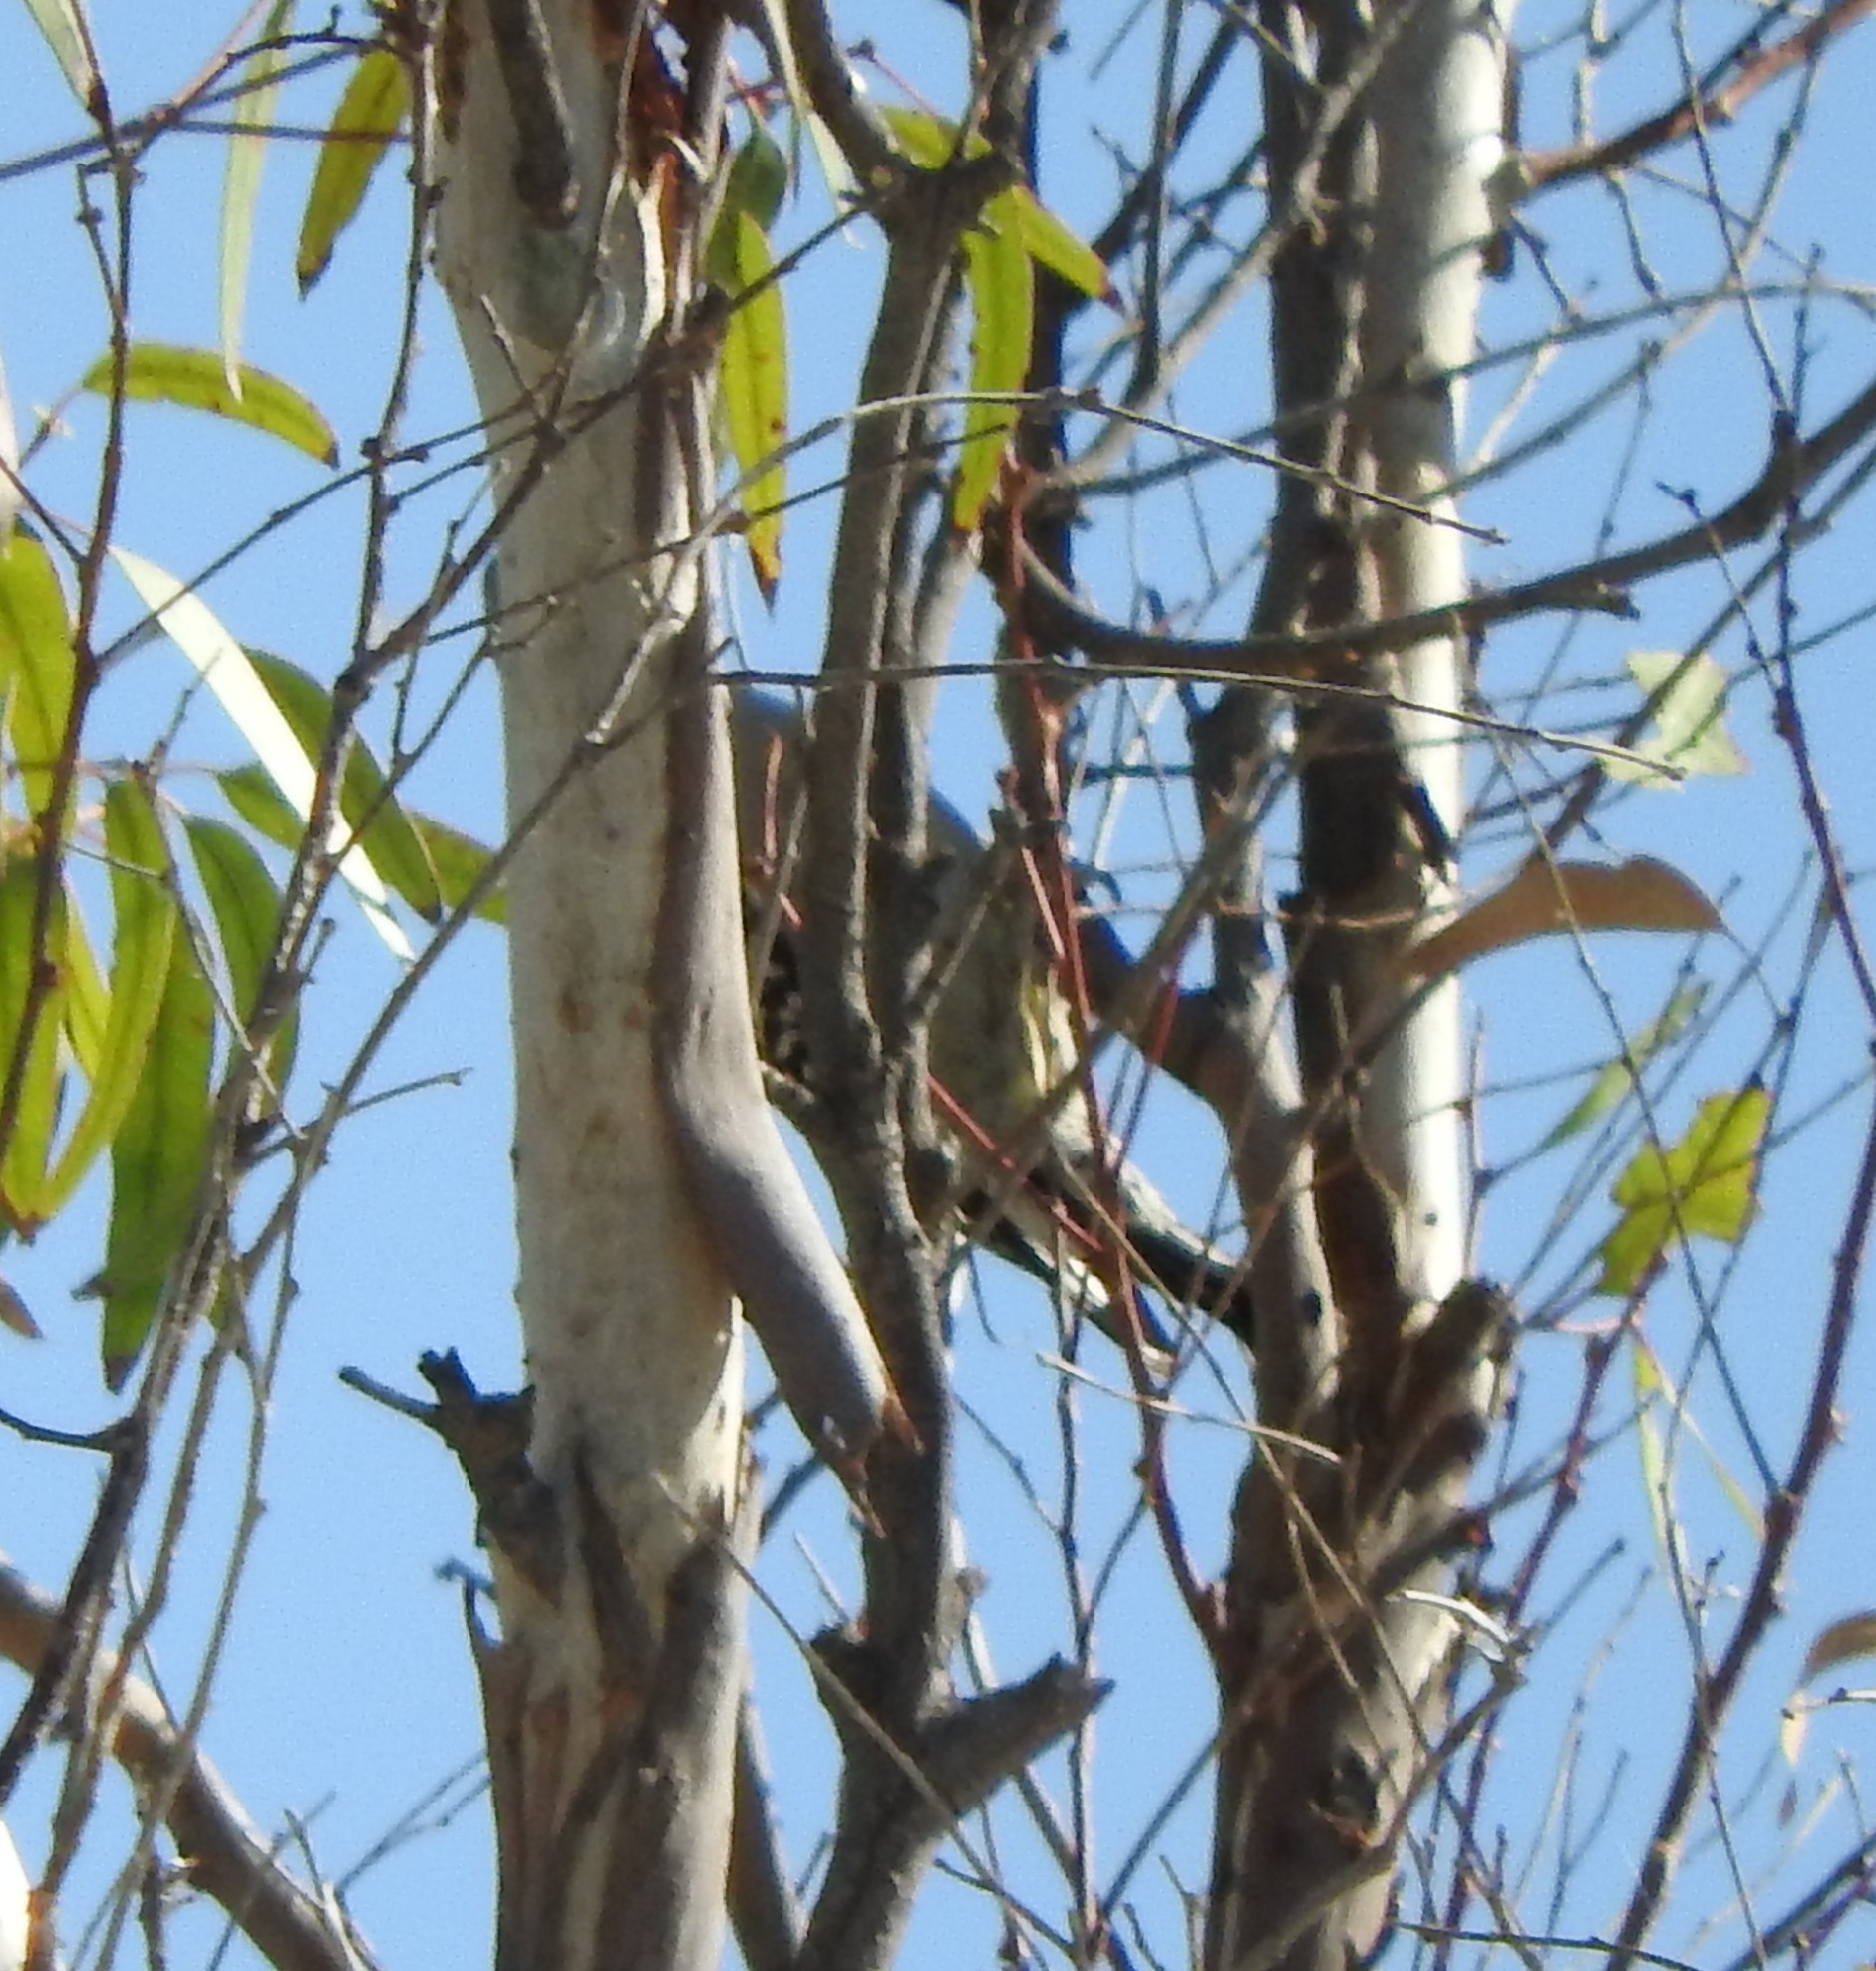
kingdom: Animalia
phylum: Chordata
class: Aves
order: Piciformes
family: Picidae
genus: Melanerpes
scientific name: Melanerpes aurifrons
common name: Golden-fronted woodpecker
